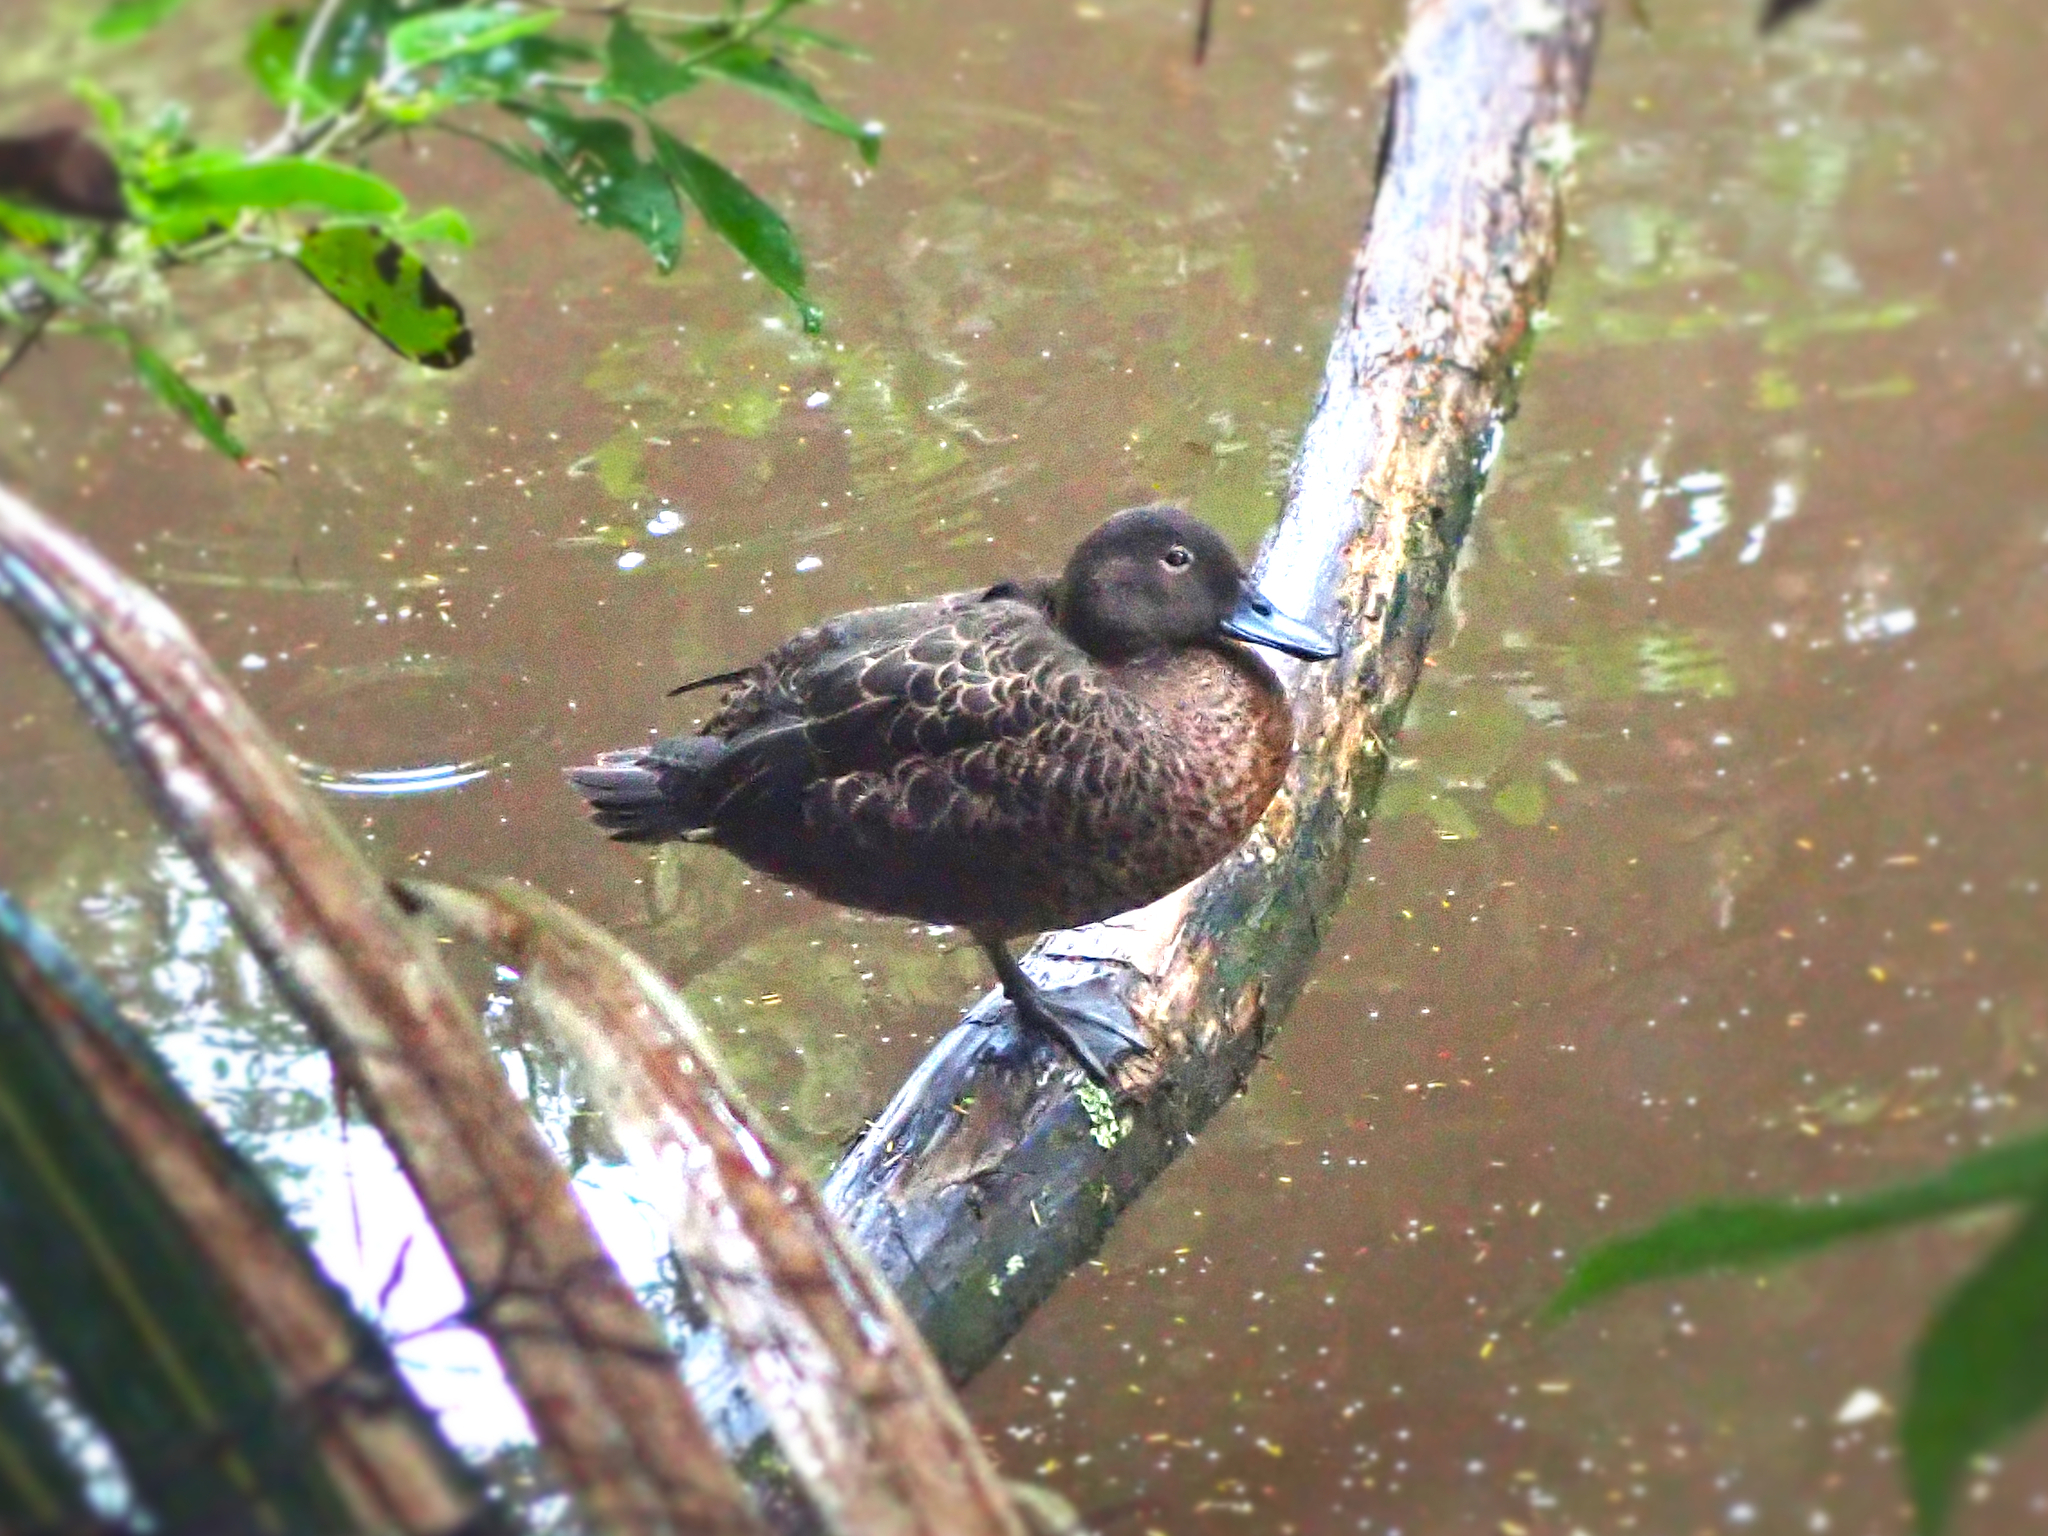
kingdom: Animalia
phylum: Chordata
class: Aves
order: Anseriformes
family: Anatidae
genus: Anas
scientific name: Anas chlorotis
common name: Brown teal
